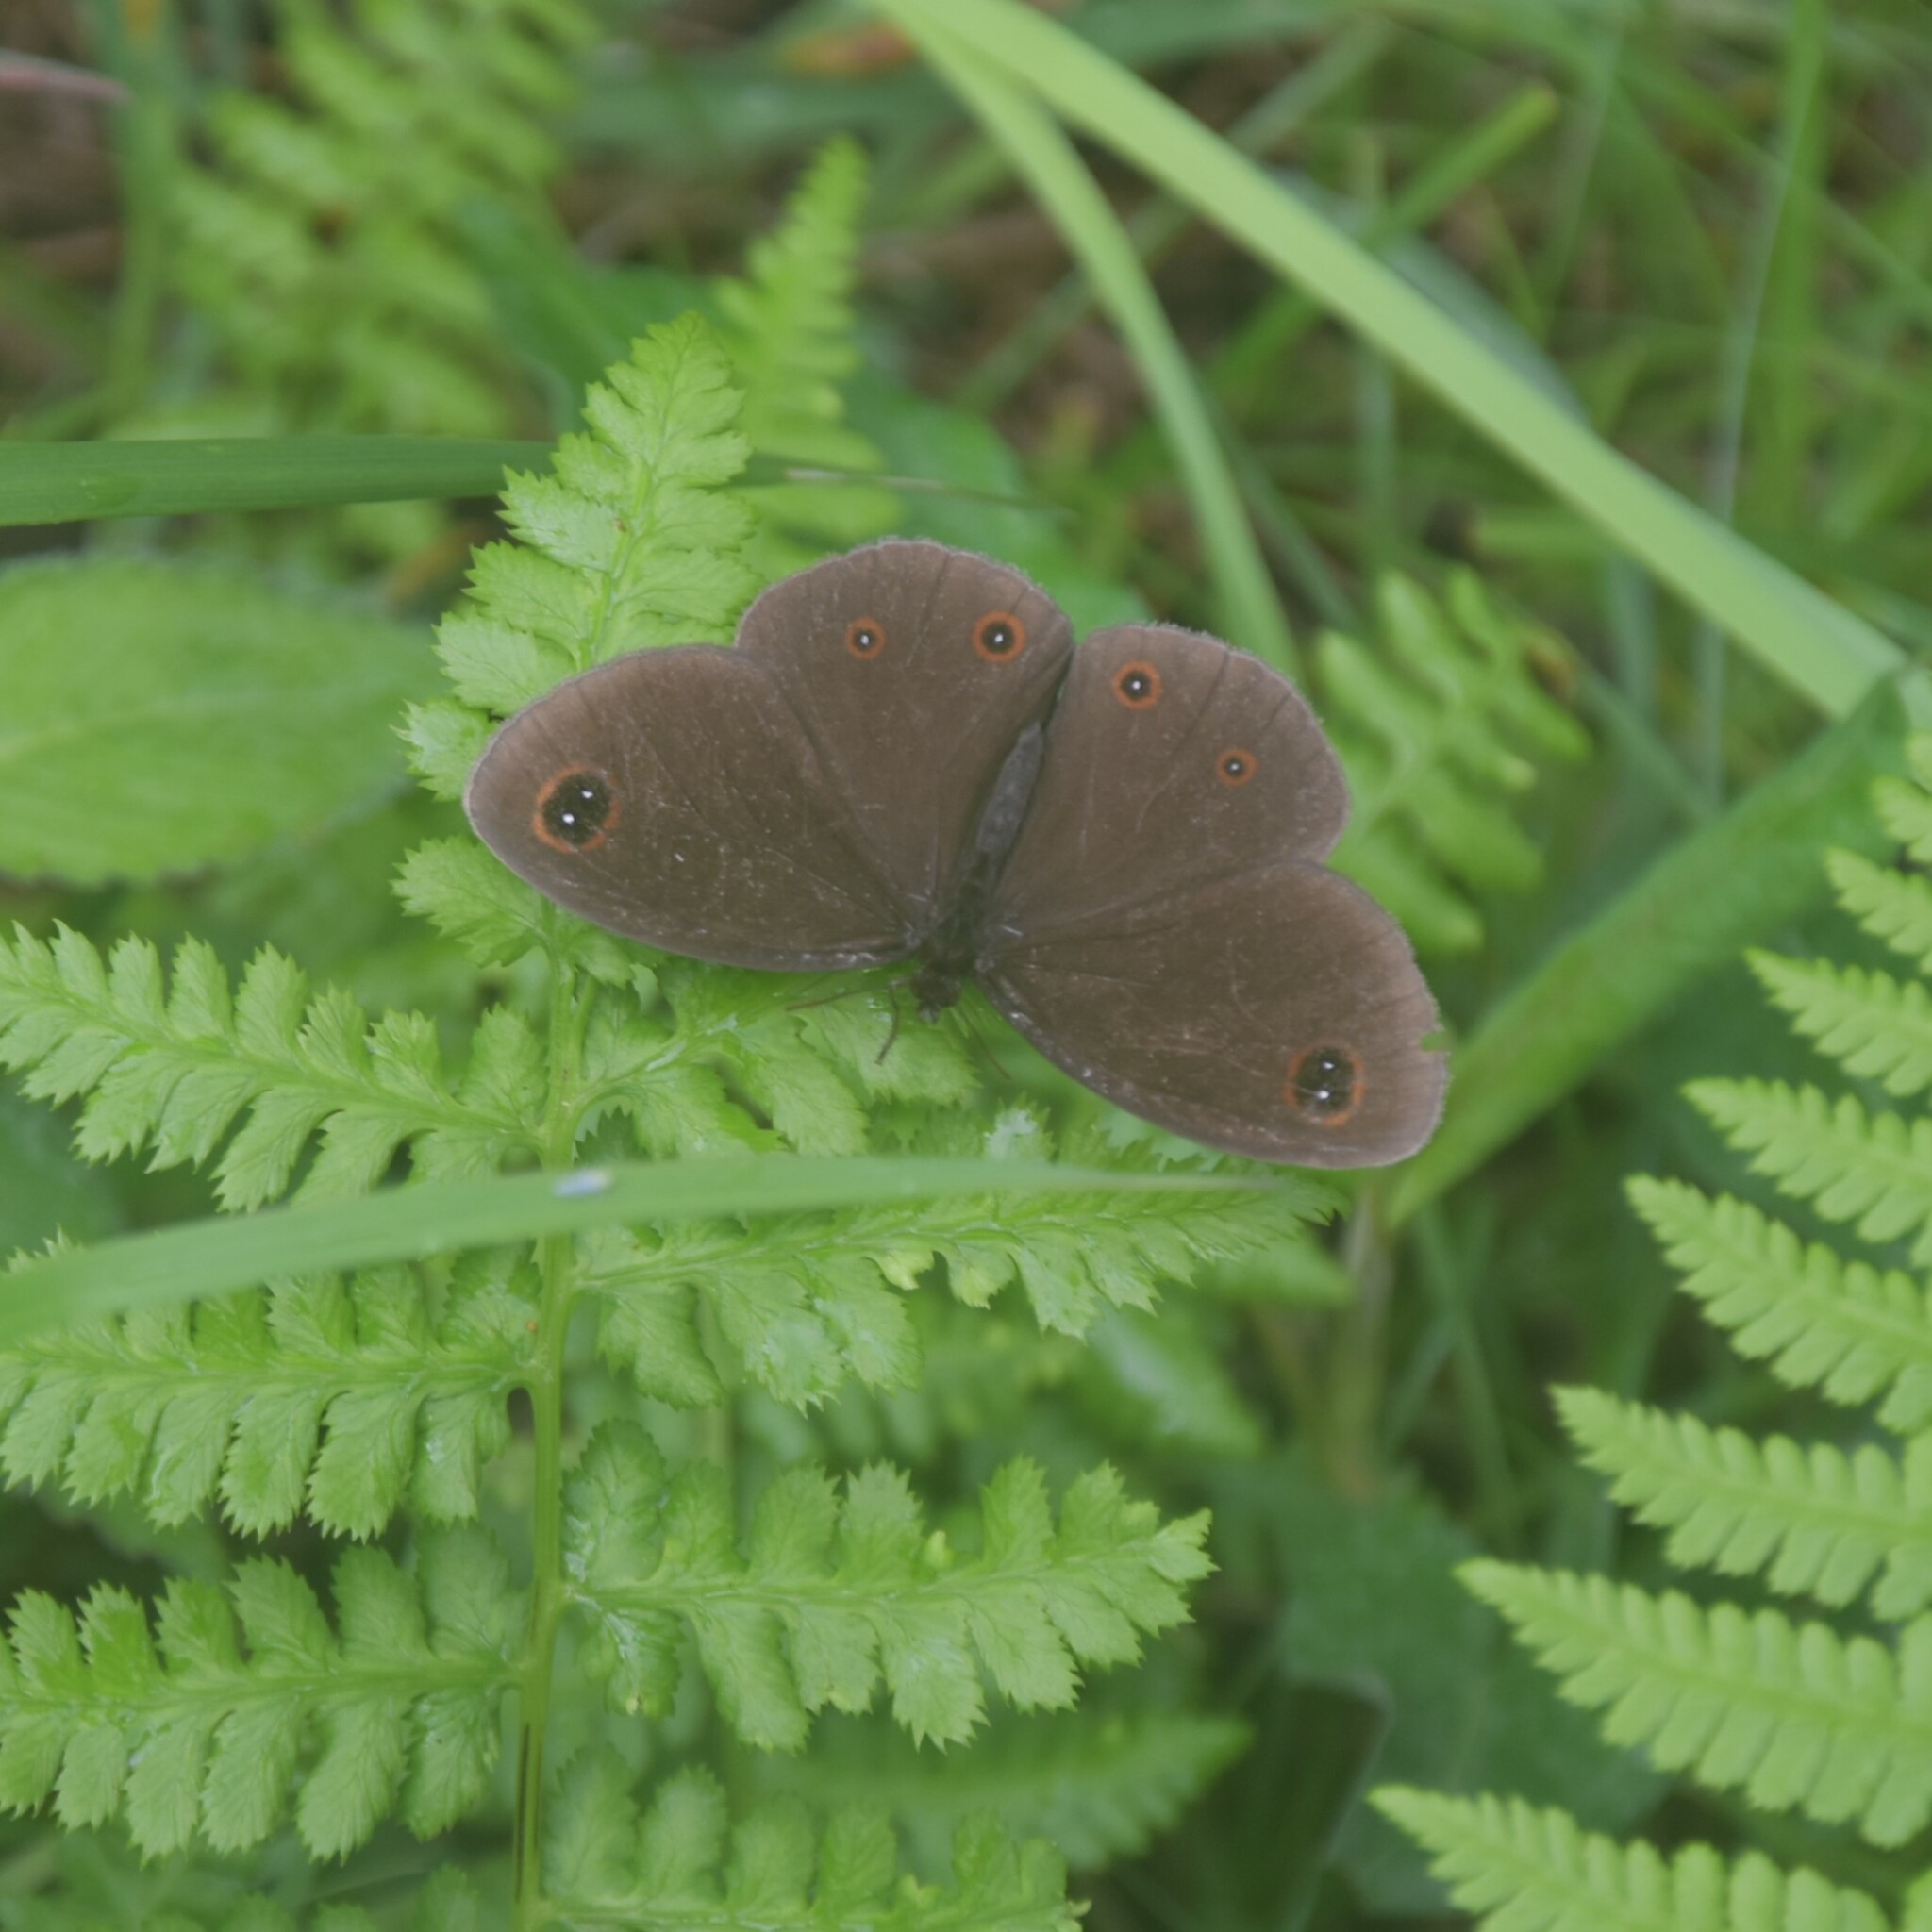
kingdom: Animalia
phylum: Arthropoda
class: Insecta
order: Lepidoptera
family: Nymphalidae
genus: Callerebia
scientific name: Callerebia nirmala
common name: Common argus
